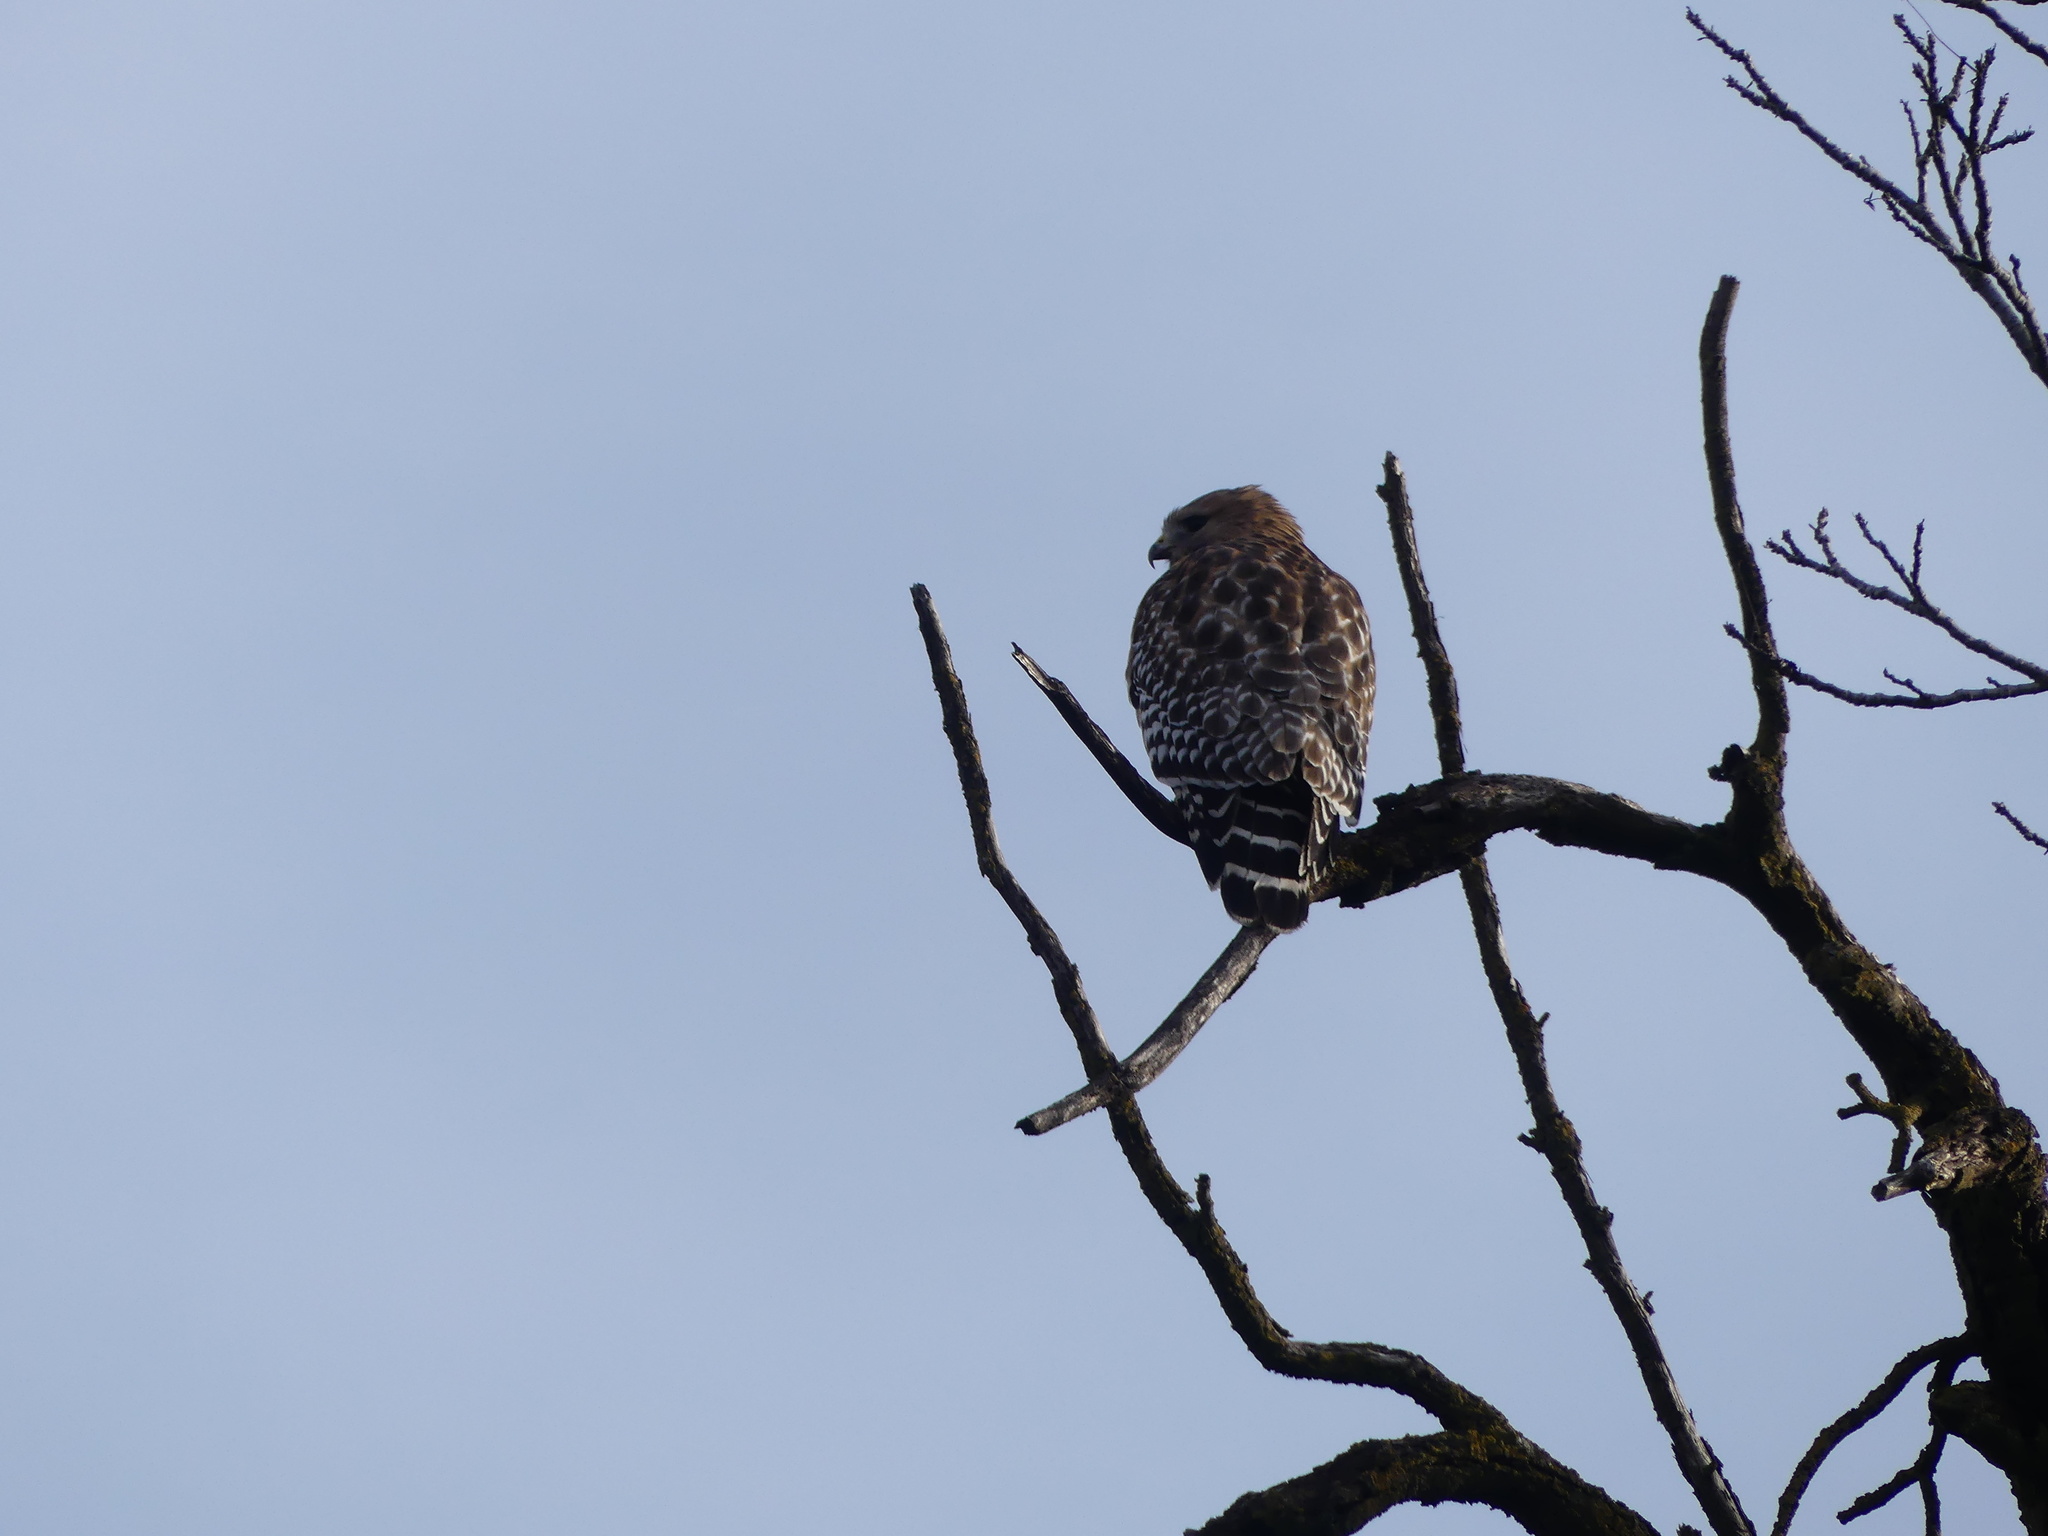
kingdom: Animalia
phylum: Chordata
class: Aves
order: Accipitriformes
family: Accipitridae
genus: Buteo
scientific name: Buteo lineatus
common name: Red-shouldered hawk
